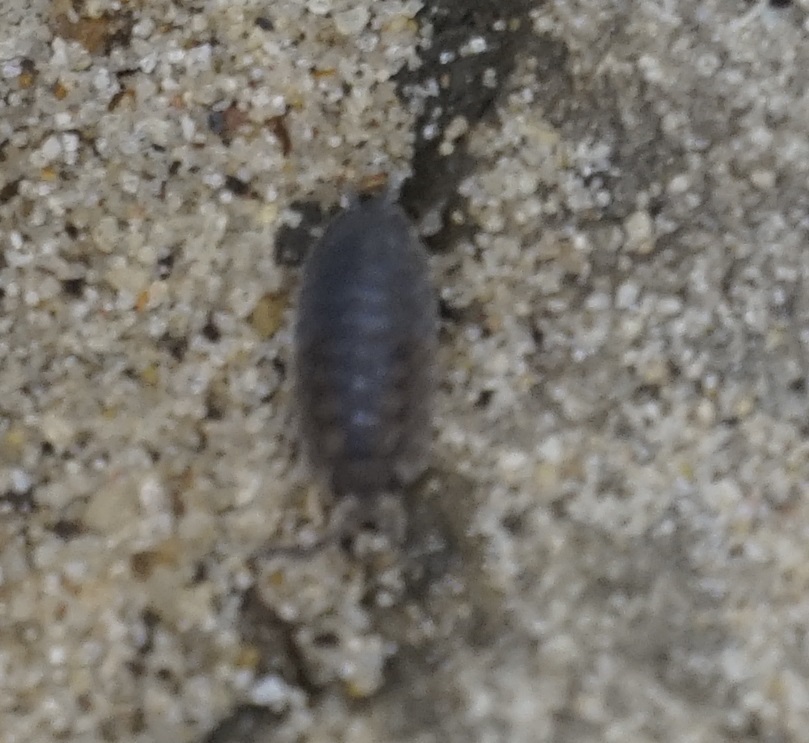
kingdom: Animalia
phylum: Arthropoda
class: Malacostraca
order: Isopoda
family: Porcellionidae
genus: Porcellio
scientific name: Porcellio scaber
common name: Common rough woodlouse
